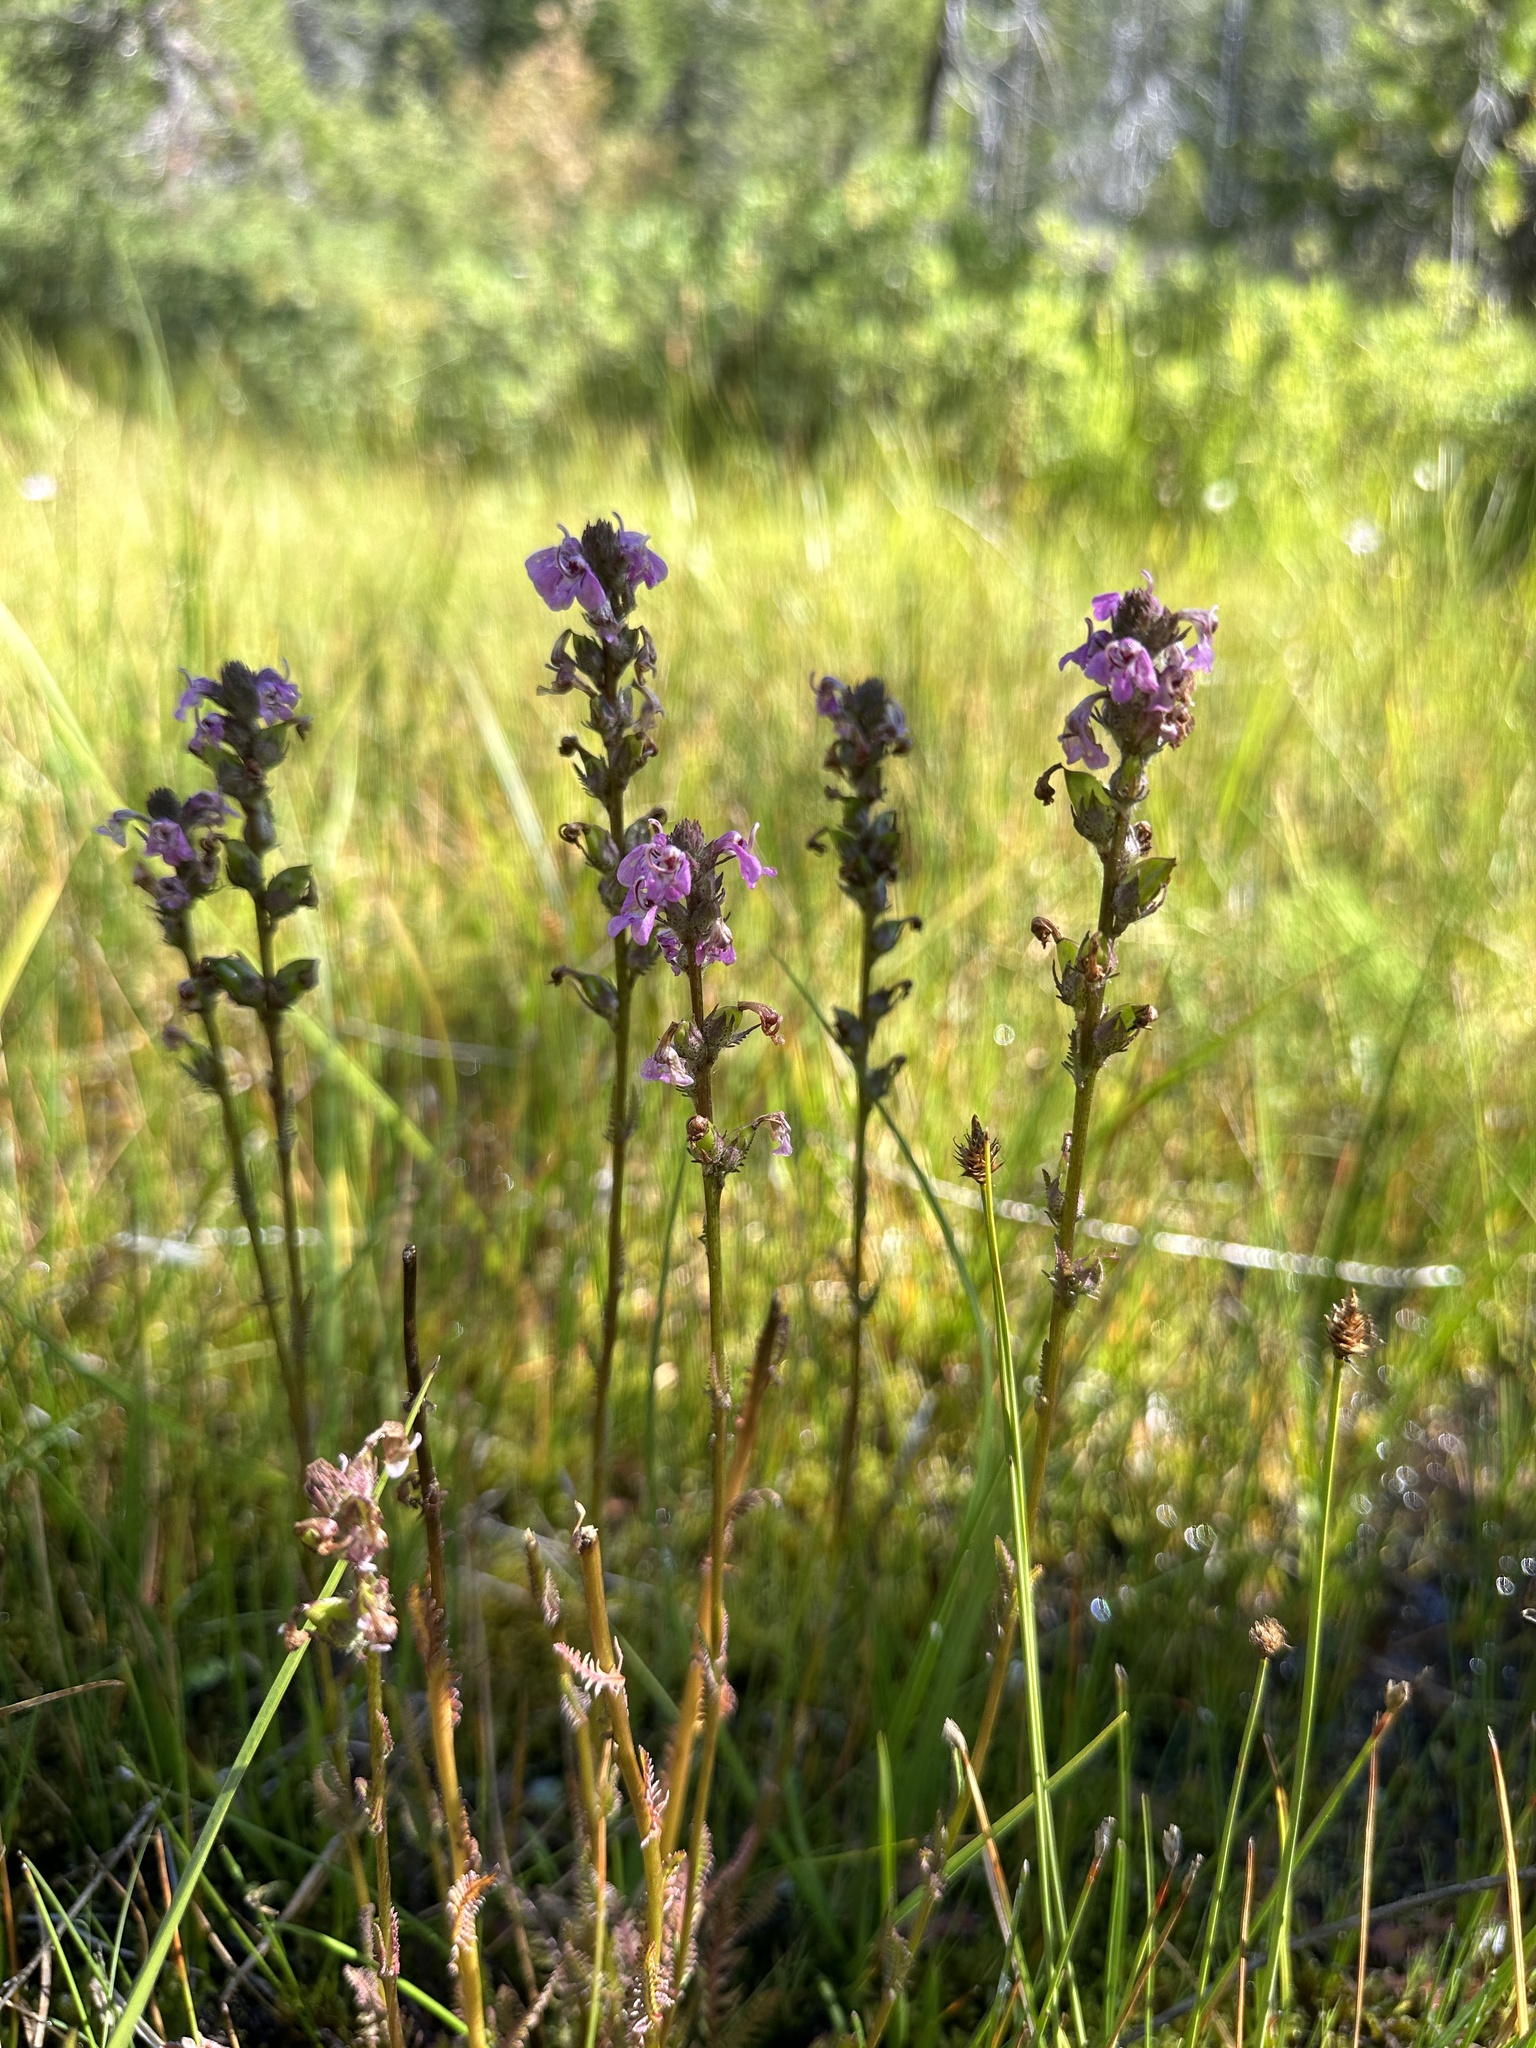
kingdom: Plantae
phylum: Tracheophyta
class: Magnoliopsida
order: Lamiales
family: Orobanchaceae
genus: Pedicularis
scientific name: Pedicularis attollens
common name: Slender pedicularis
